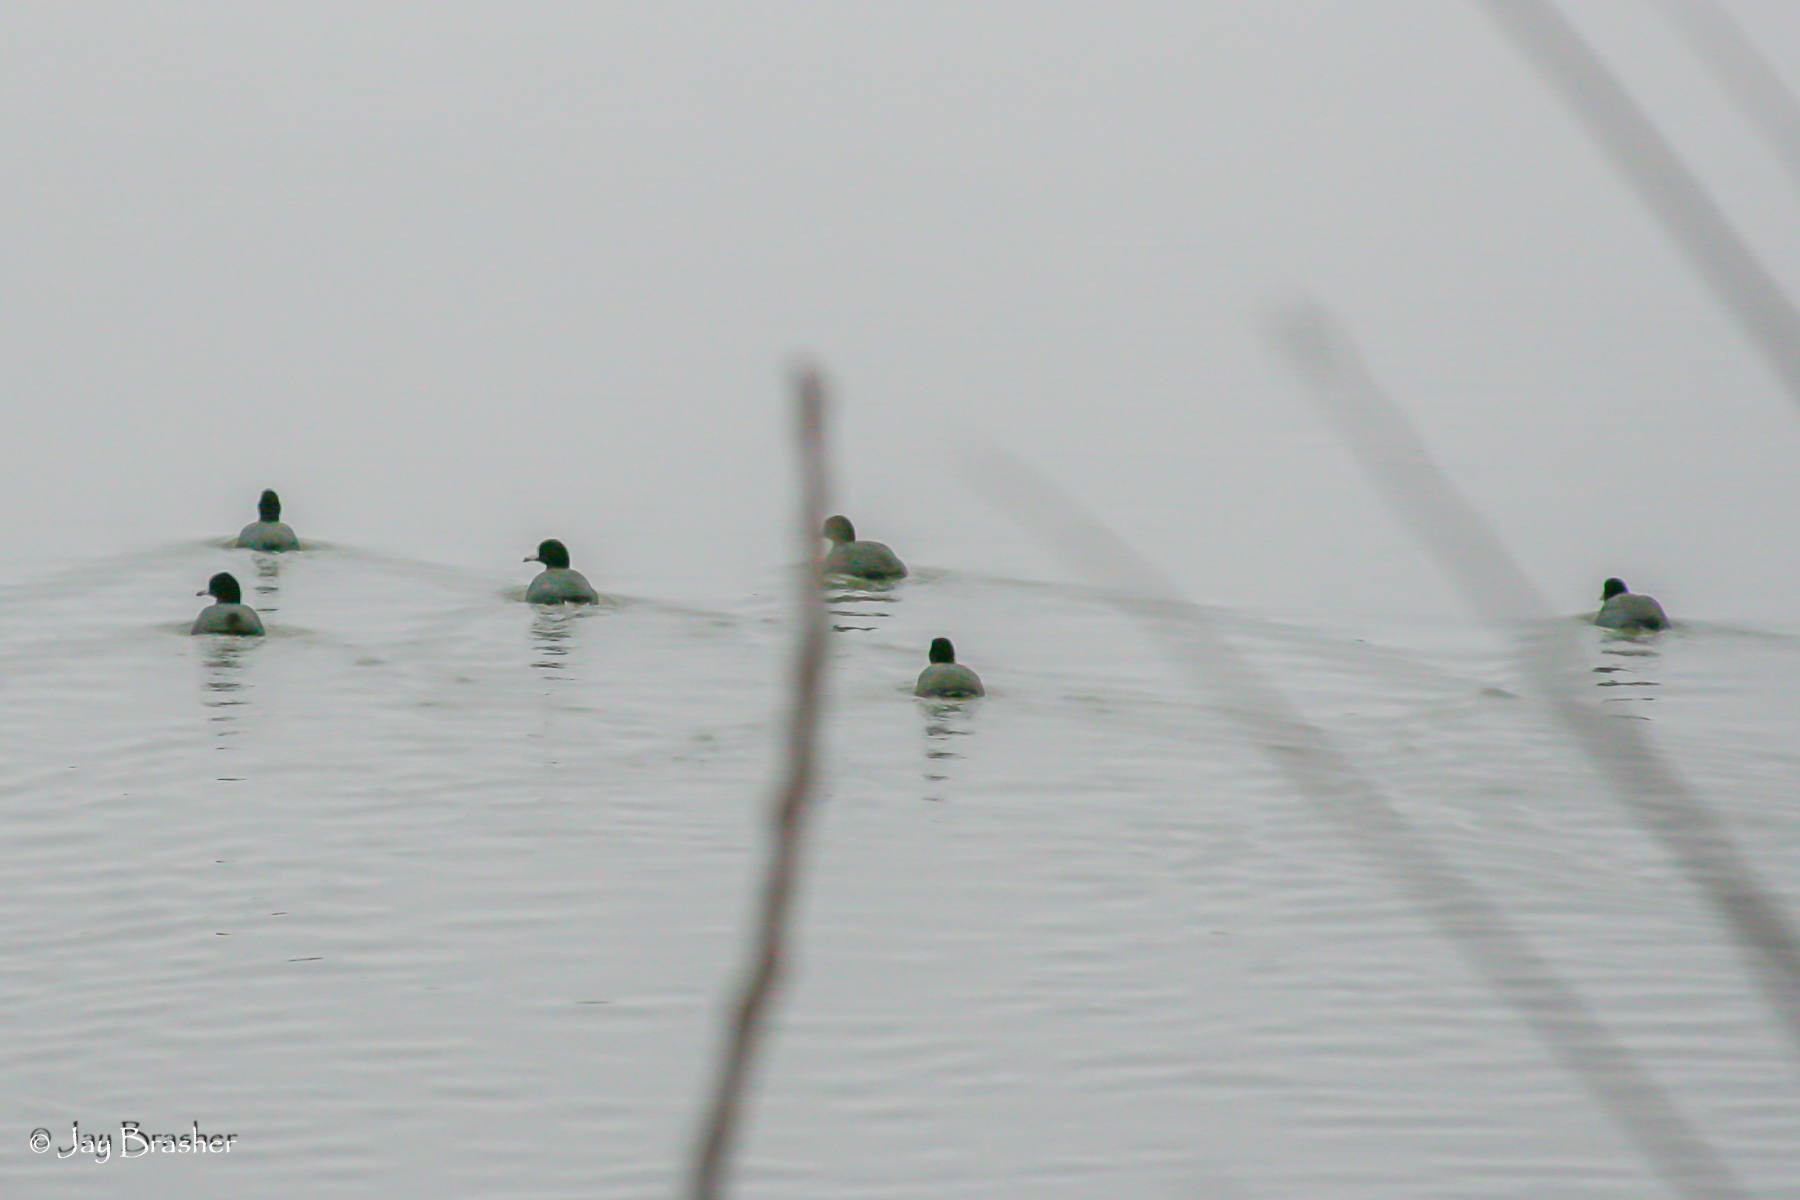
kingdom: Animalia
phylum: Chordata
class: Aves
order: Gruiformes
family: Rallidae
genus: Fulica
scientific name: Fulica americana
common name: American coot
